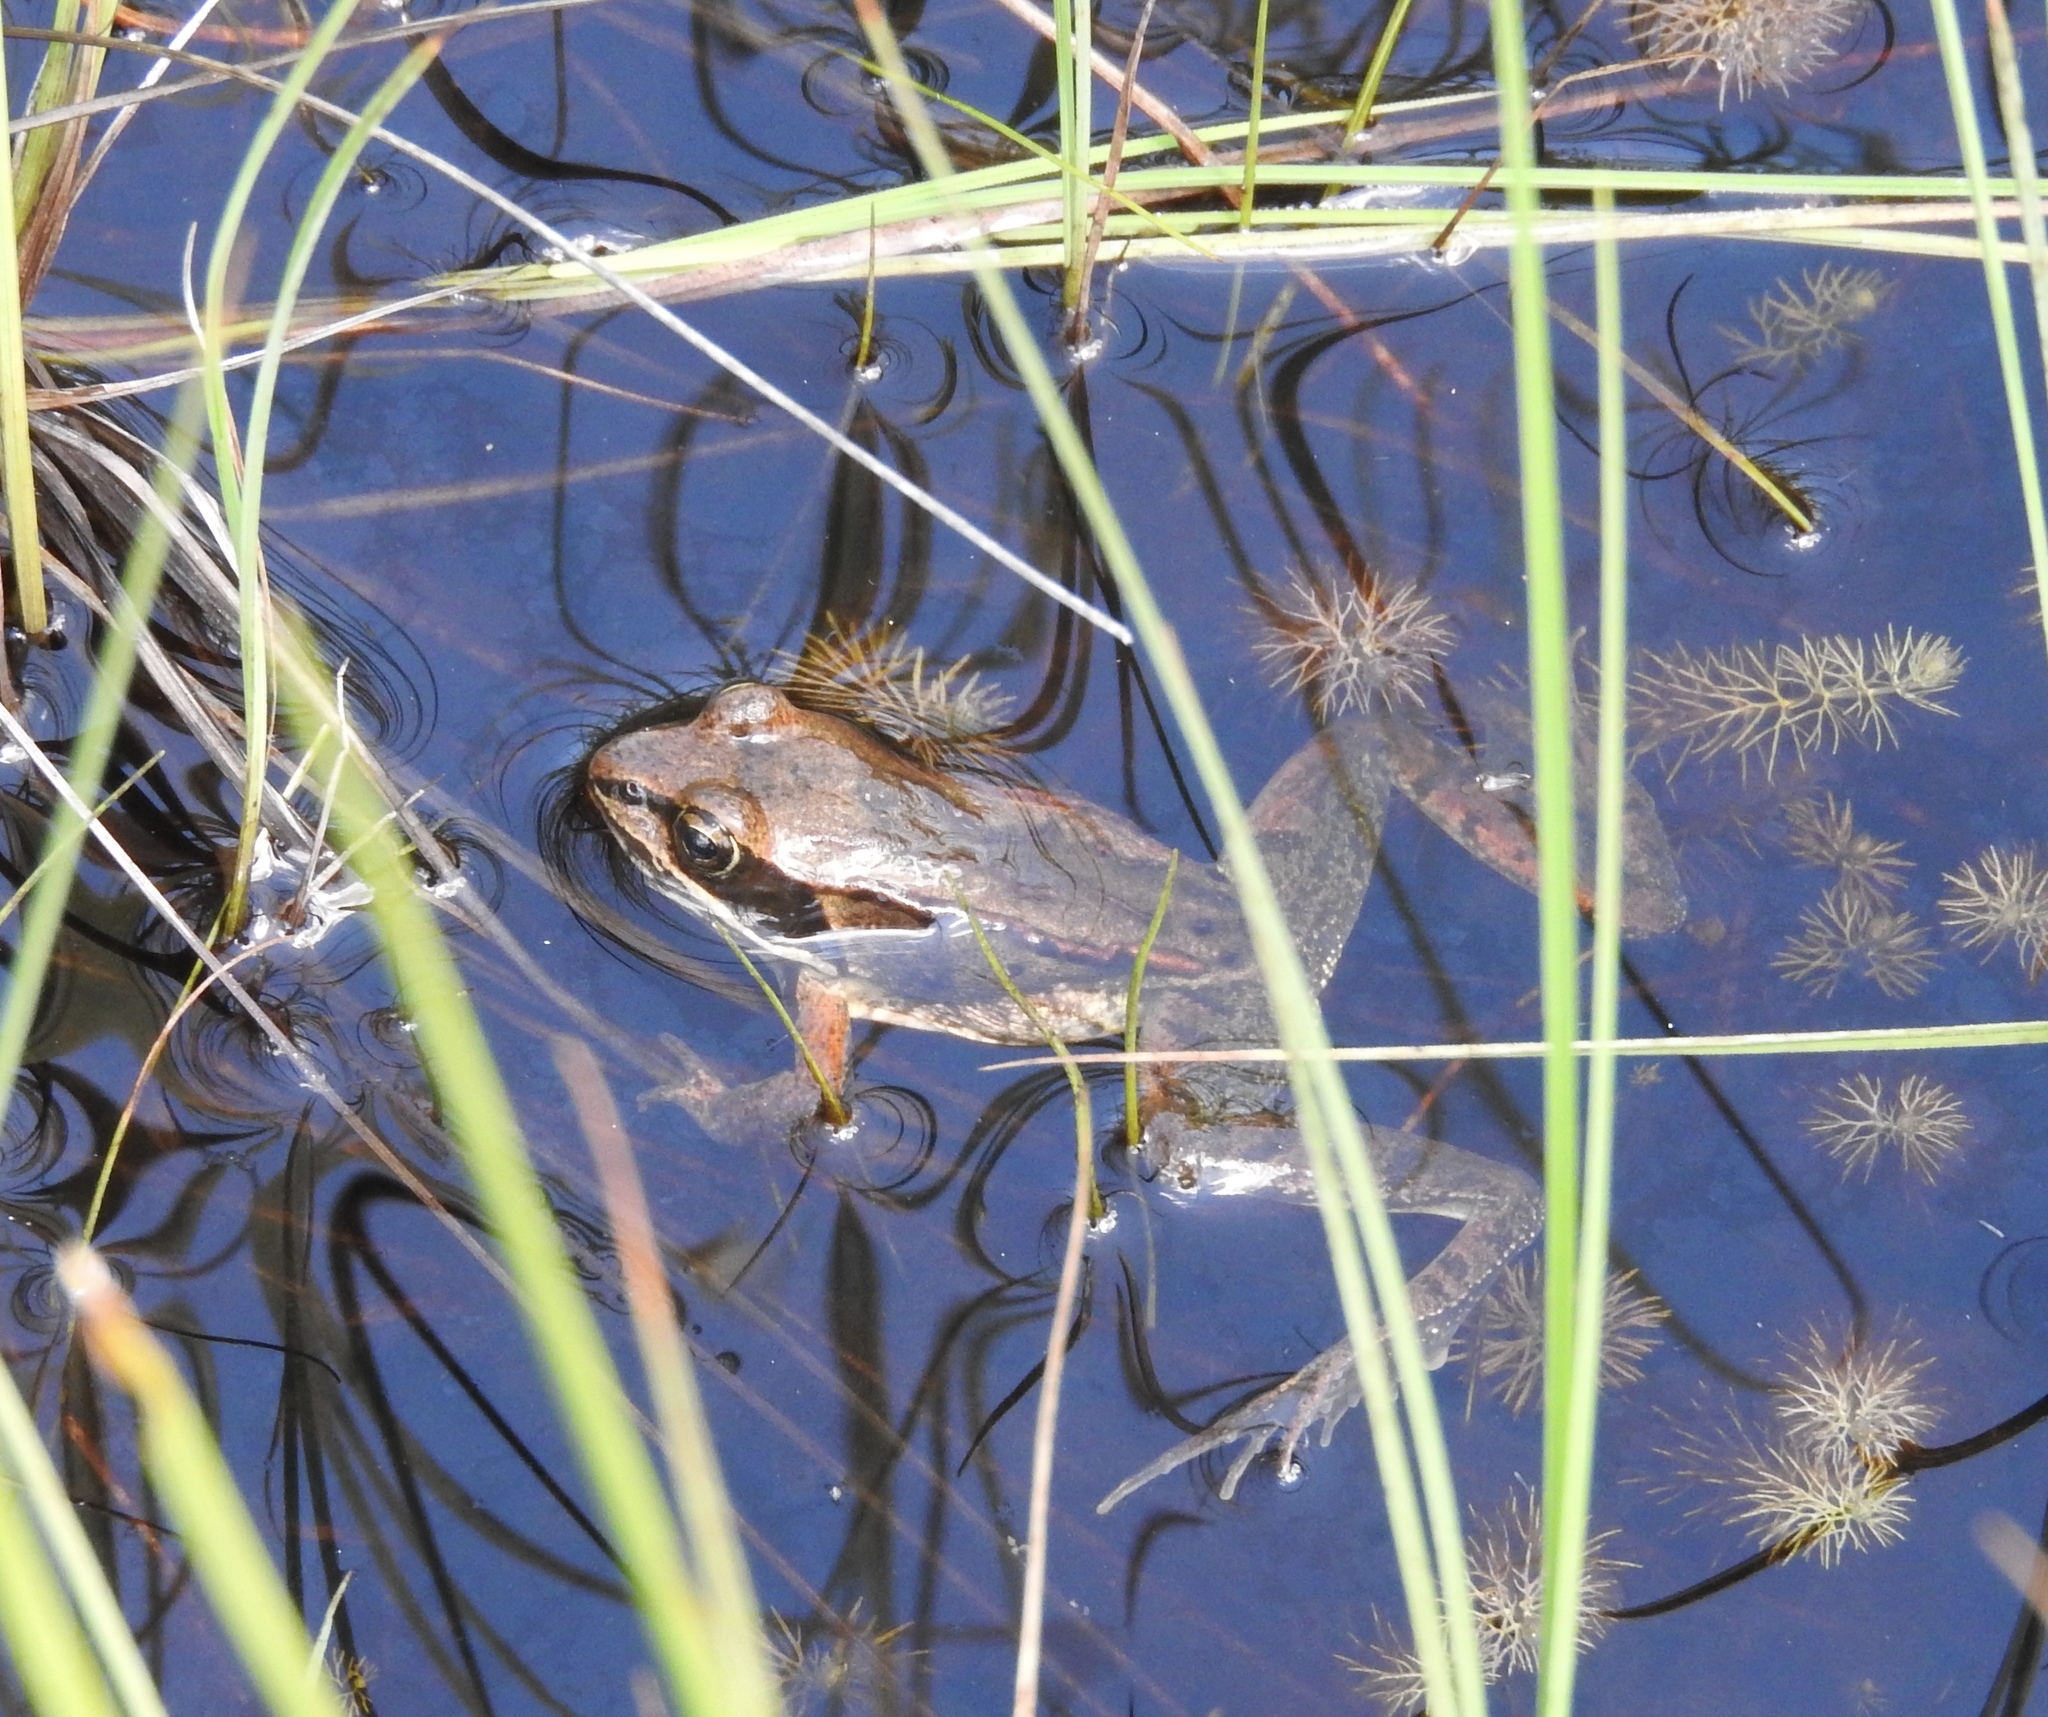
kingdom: Animalia
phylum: Chordata
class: Amphibia
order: Anura
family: Ranidae
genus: Lithobates
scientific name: Lithobates sylvaticus
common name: Wood frog
